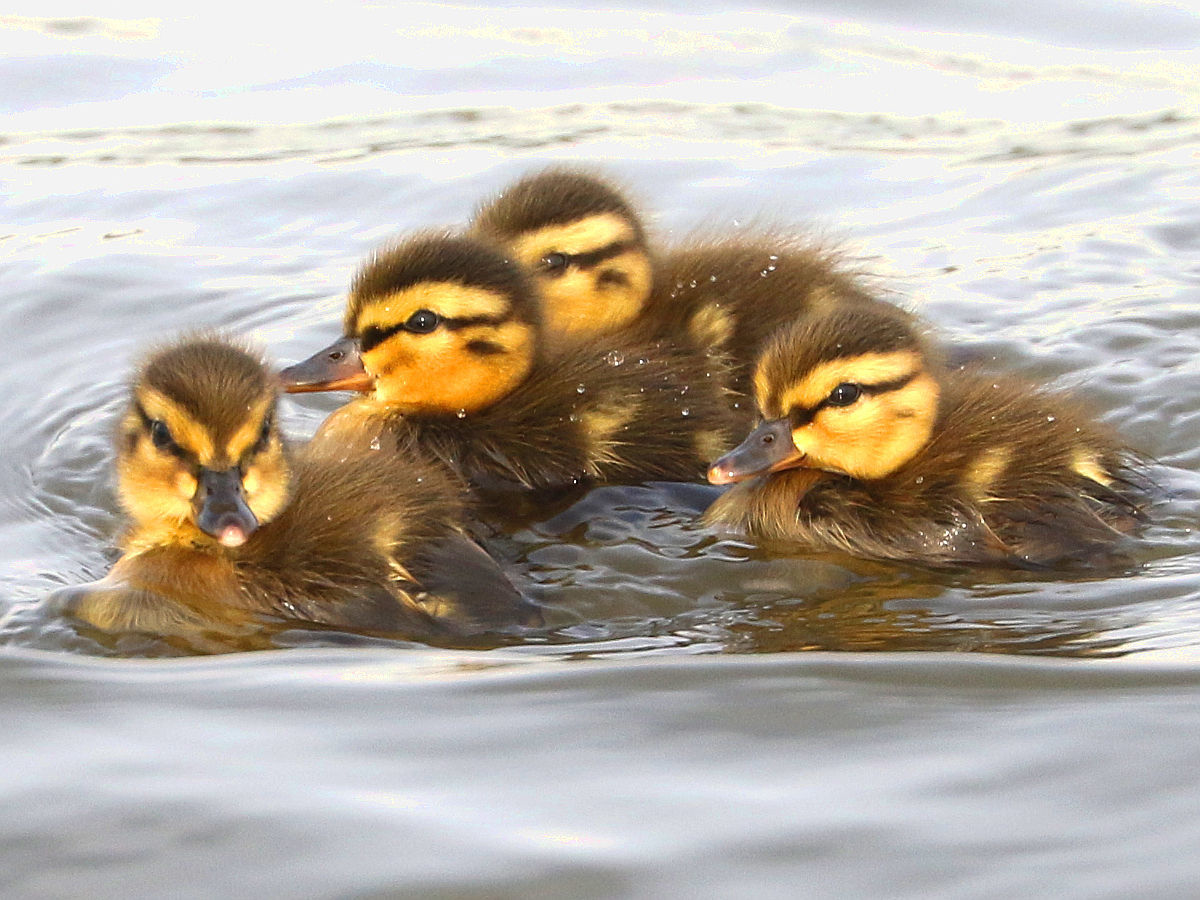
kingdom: Animalia
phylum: Chordata
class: Aves
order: Anseriformes
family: Anatidae
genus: Anas
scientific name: Anas platyrhynchos
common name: Mallard
